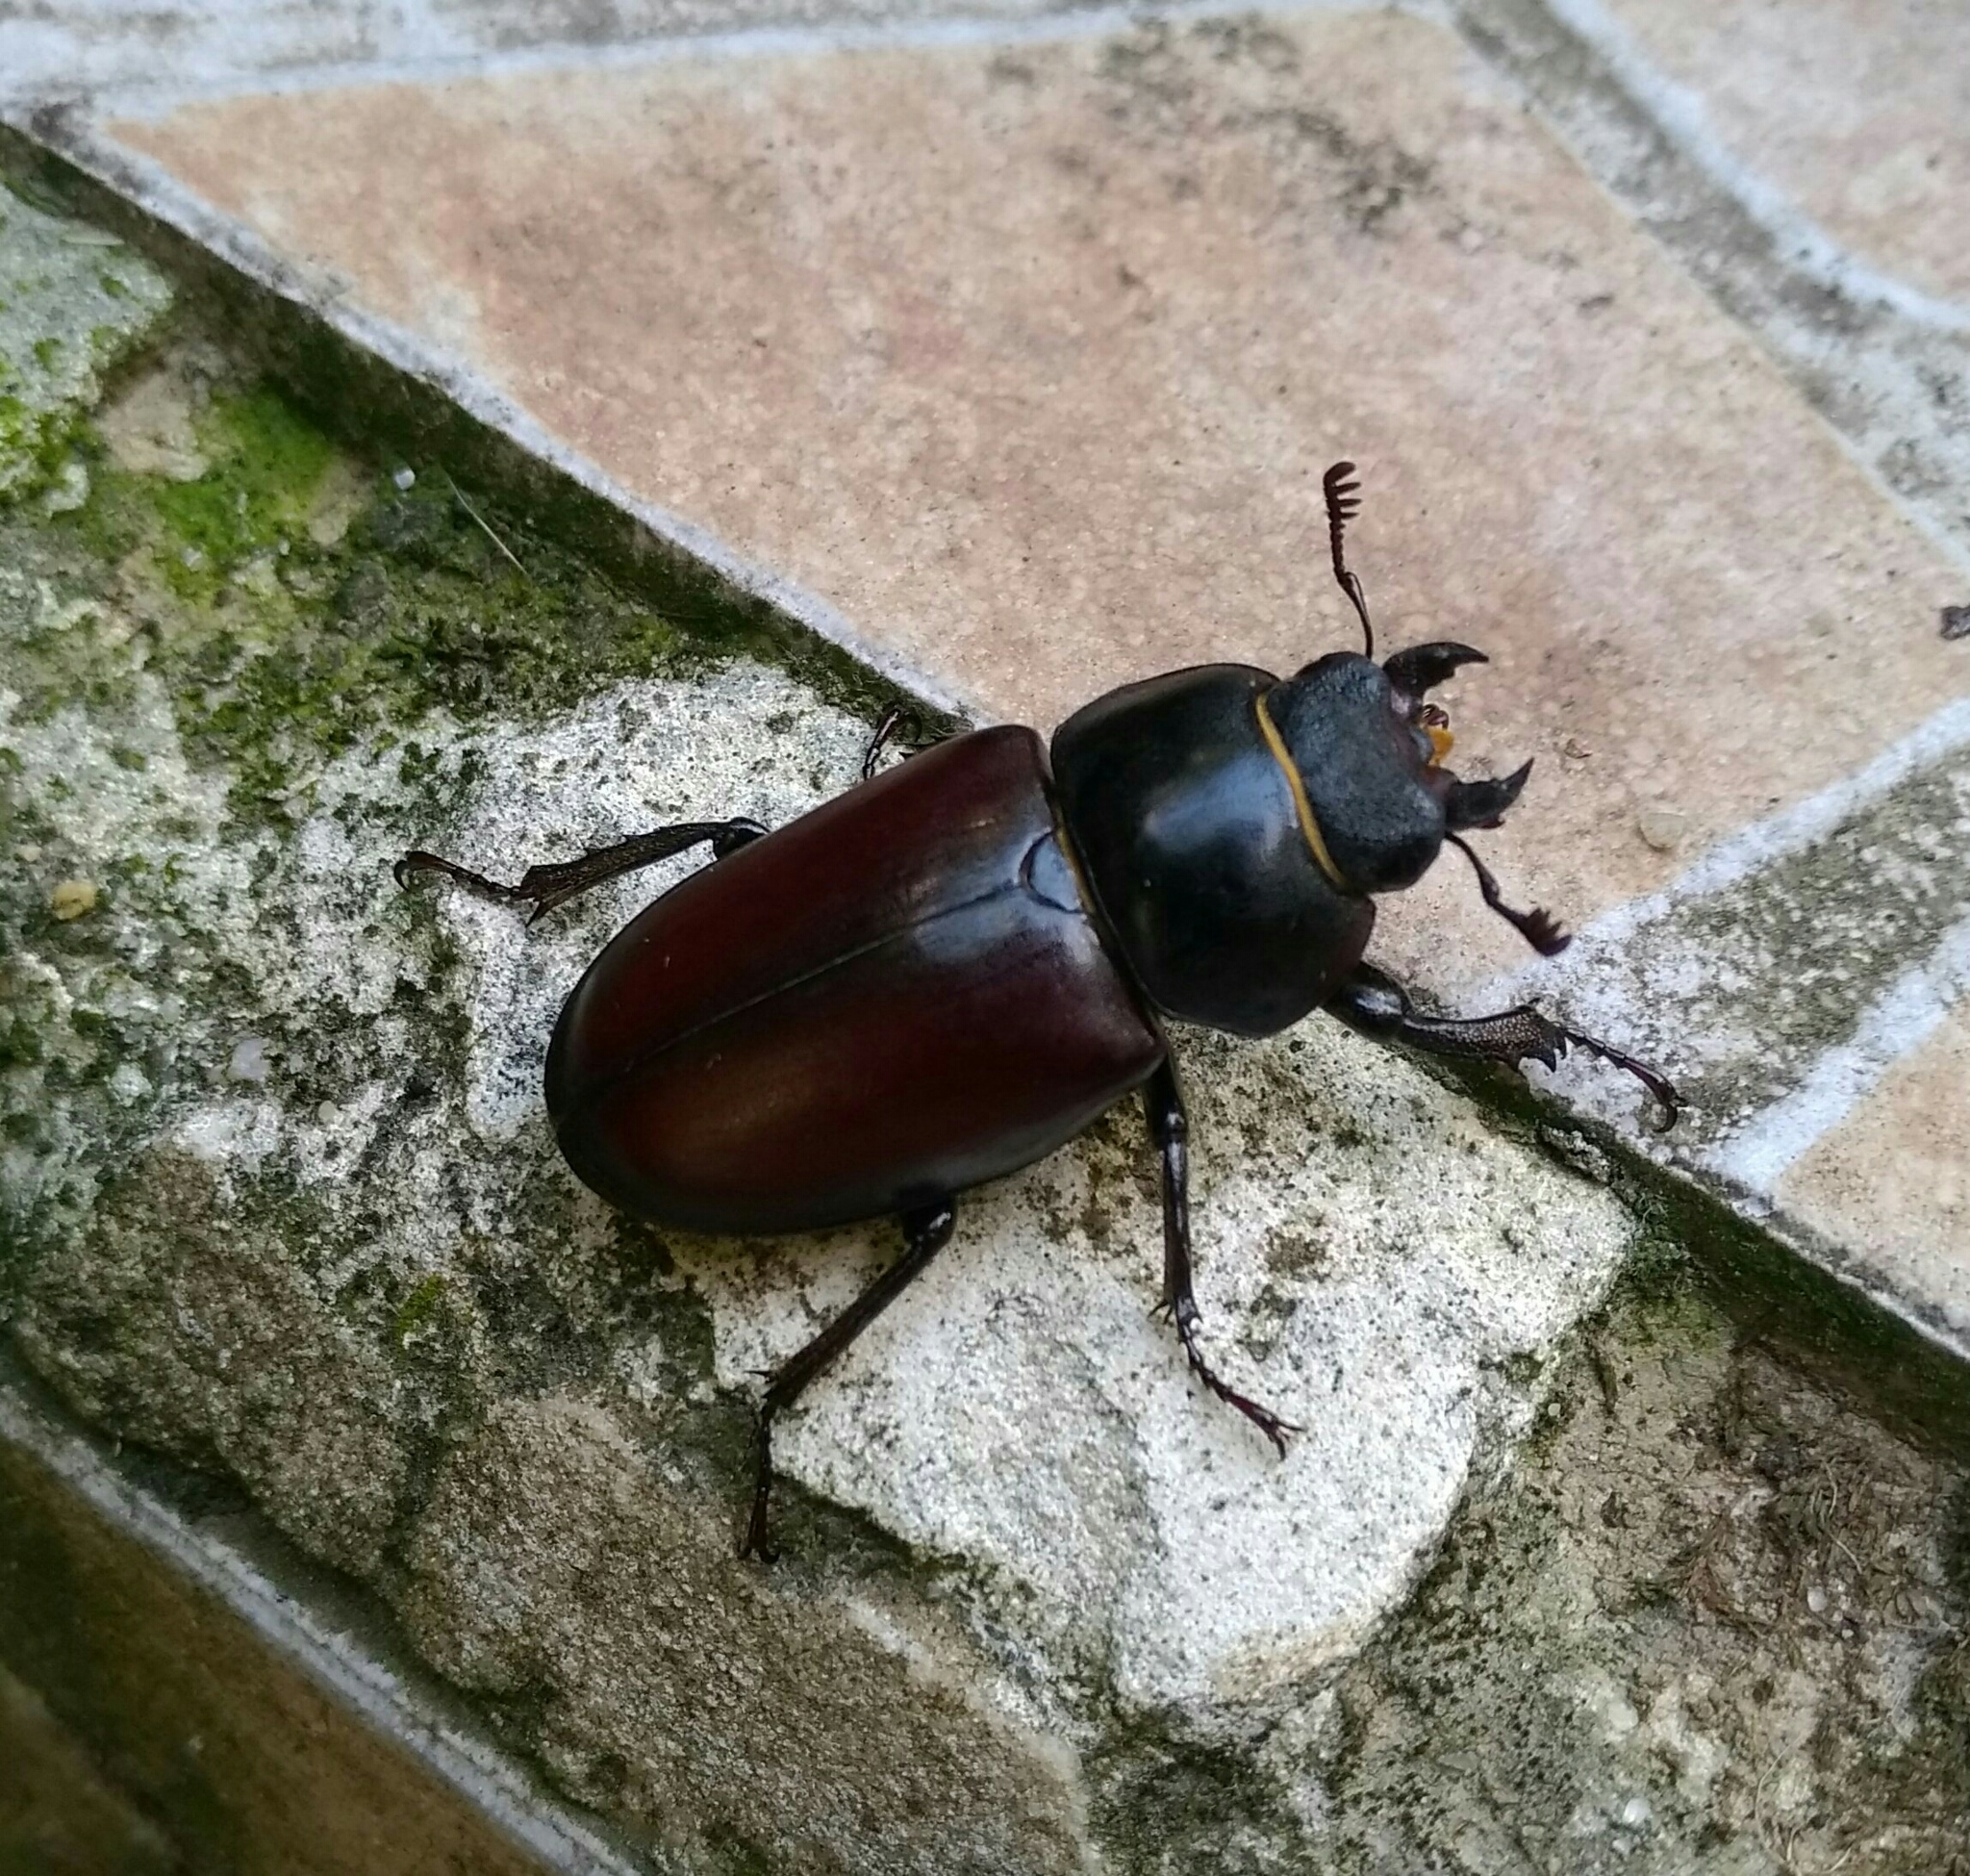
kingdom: Animalia
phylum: Arthropoda
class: Insecta
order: Coleoptera
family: Lucanidae
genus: Lucanus
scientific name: Lucanus cervus
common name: Stag beetle
